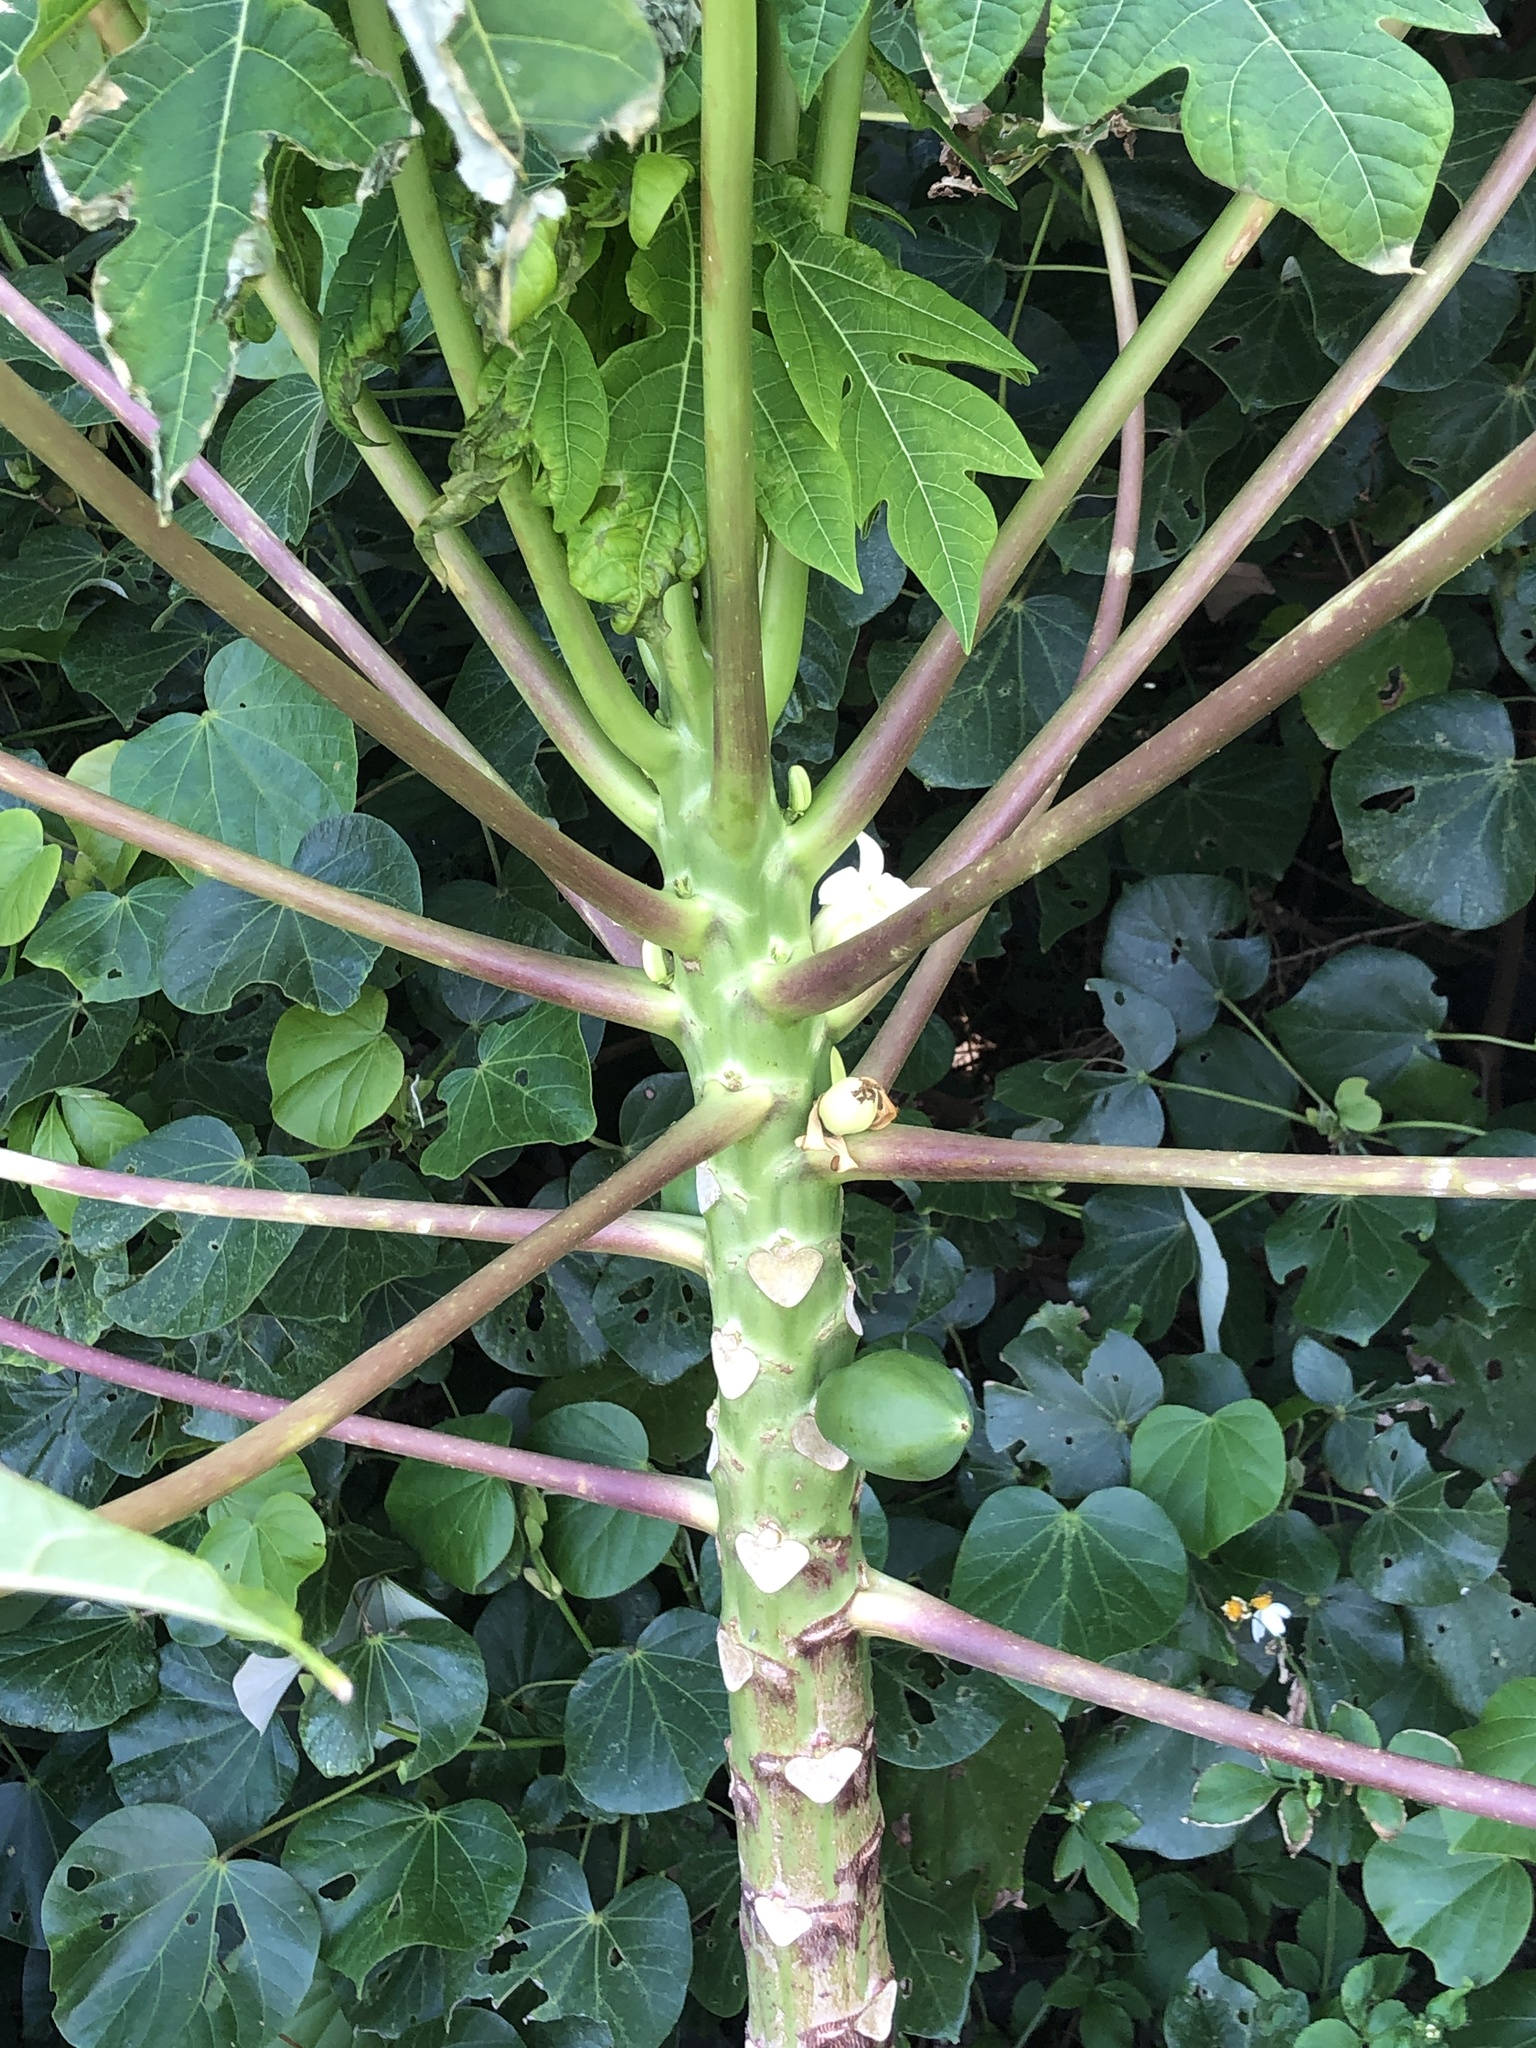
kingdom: Plantae
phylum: Tracheophyta
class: Magnoliopsida
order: Brassicales
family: Caricaceae
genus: Carica
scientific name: Carica papaya
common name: Papaya
